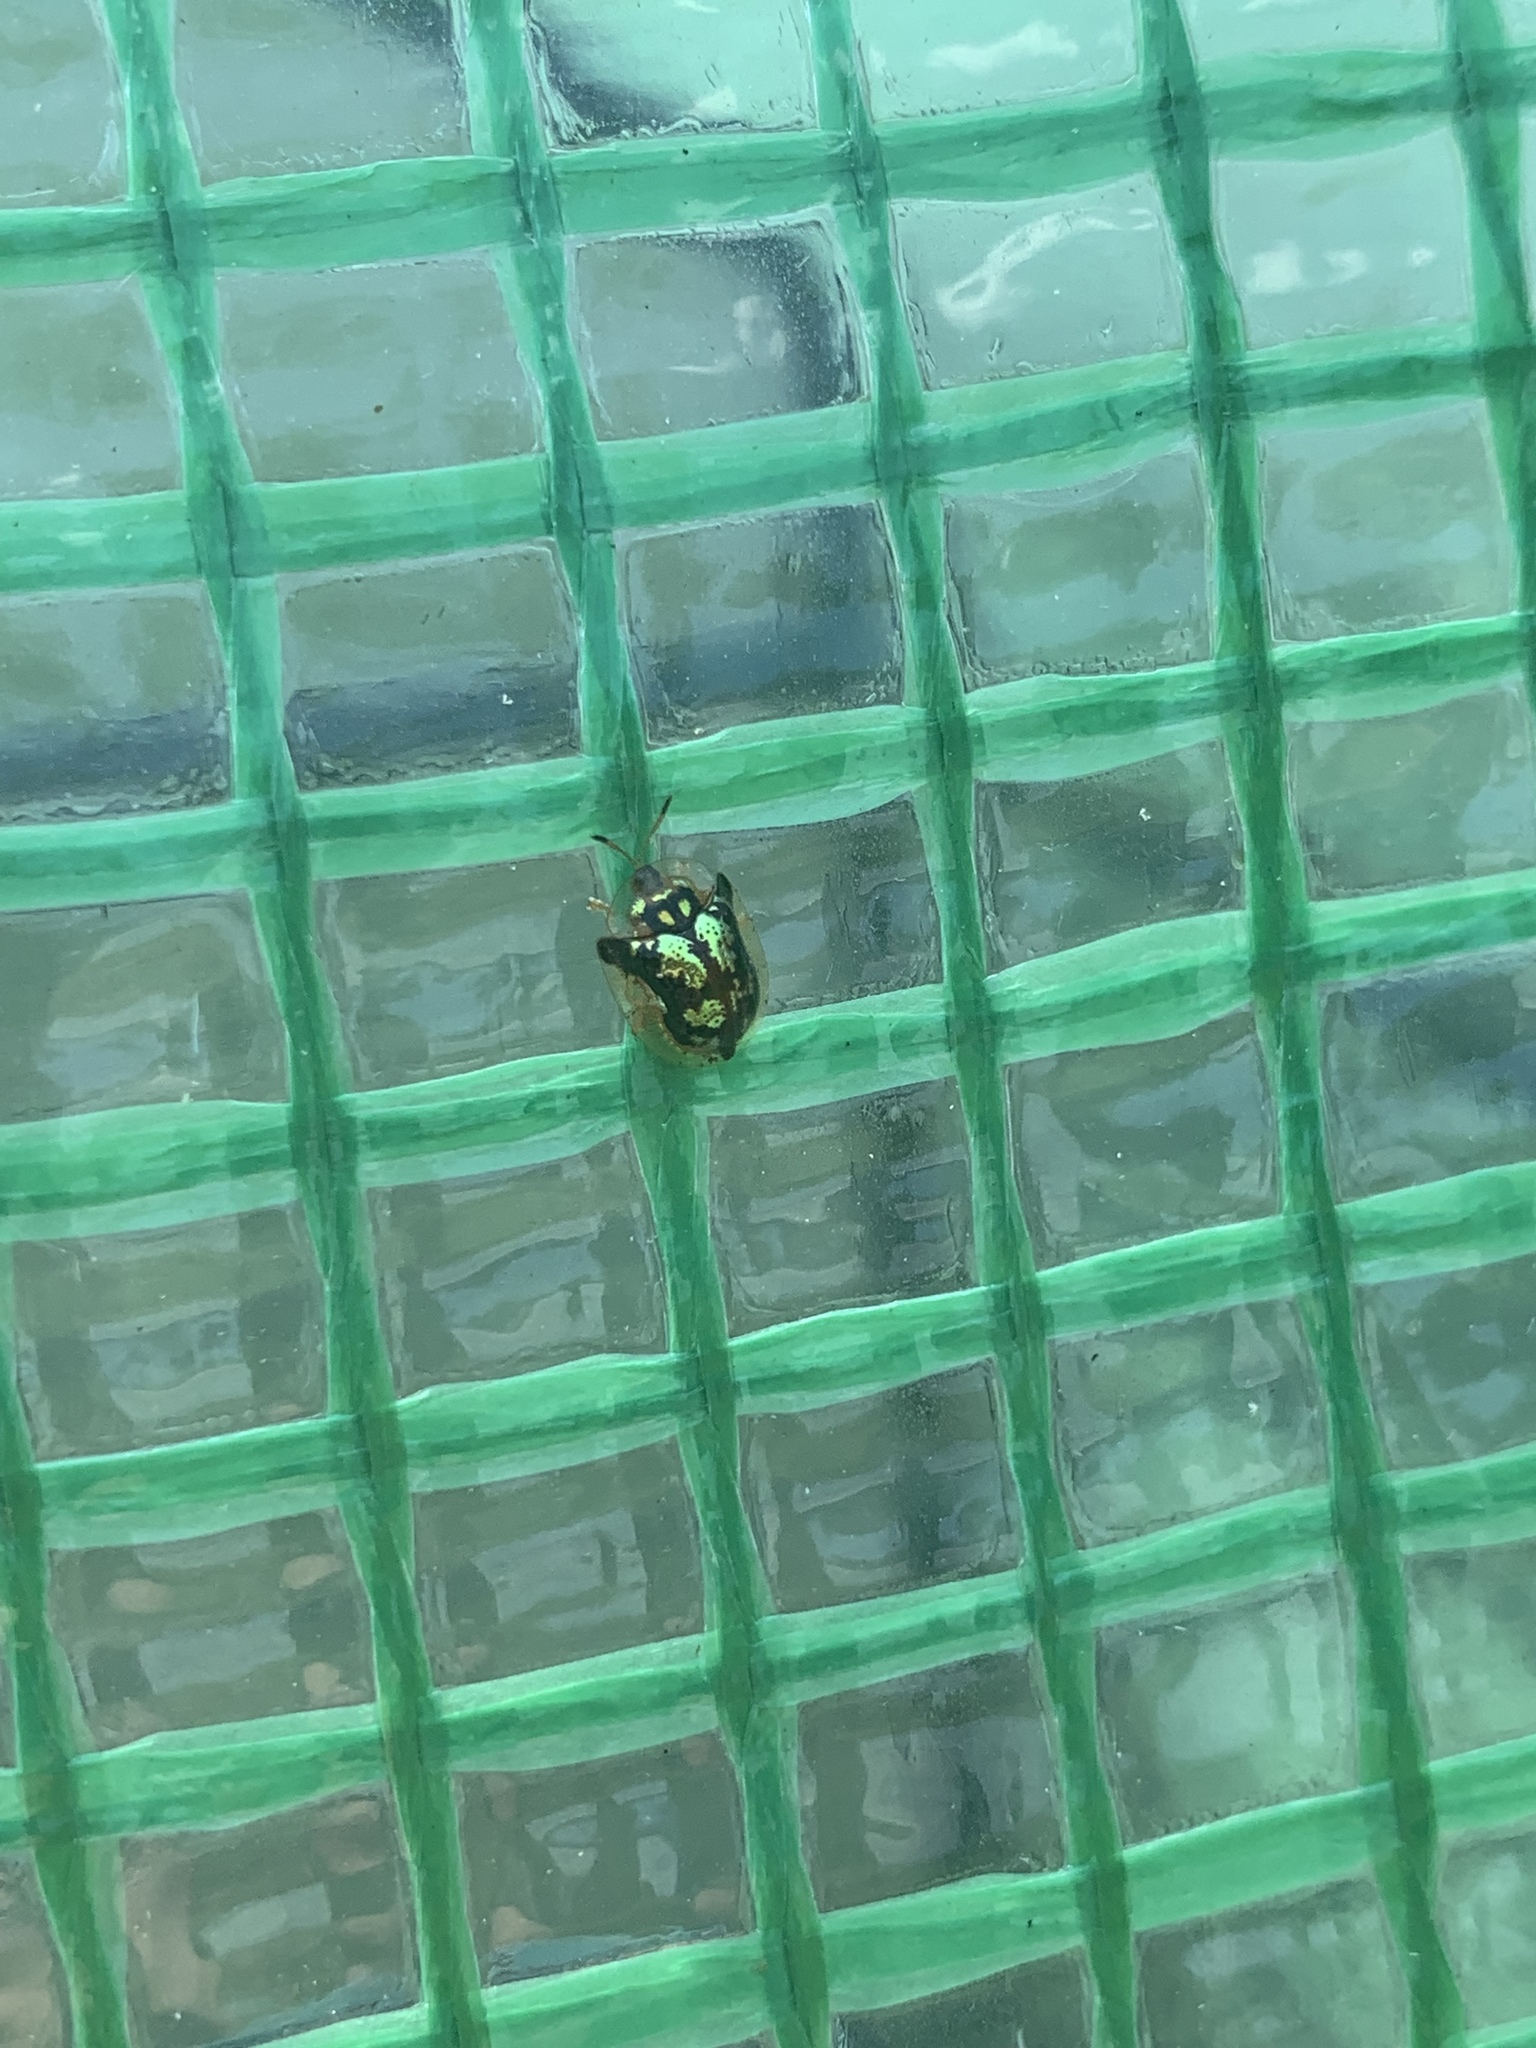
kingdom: Animalia
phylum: Arthropoda
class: Insecta
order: Coleoptera
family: Chrysomelidae
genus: Deloyala
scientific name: Deloyala guttata
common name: Mottled tortoise beetle
